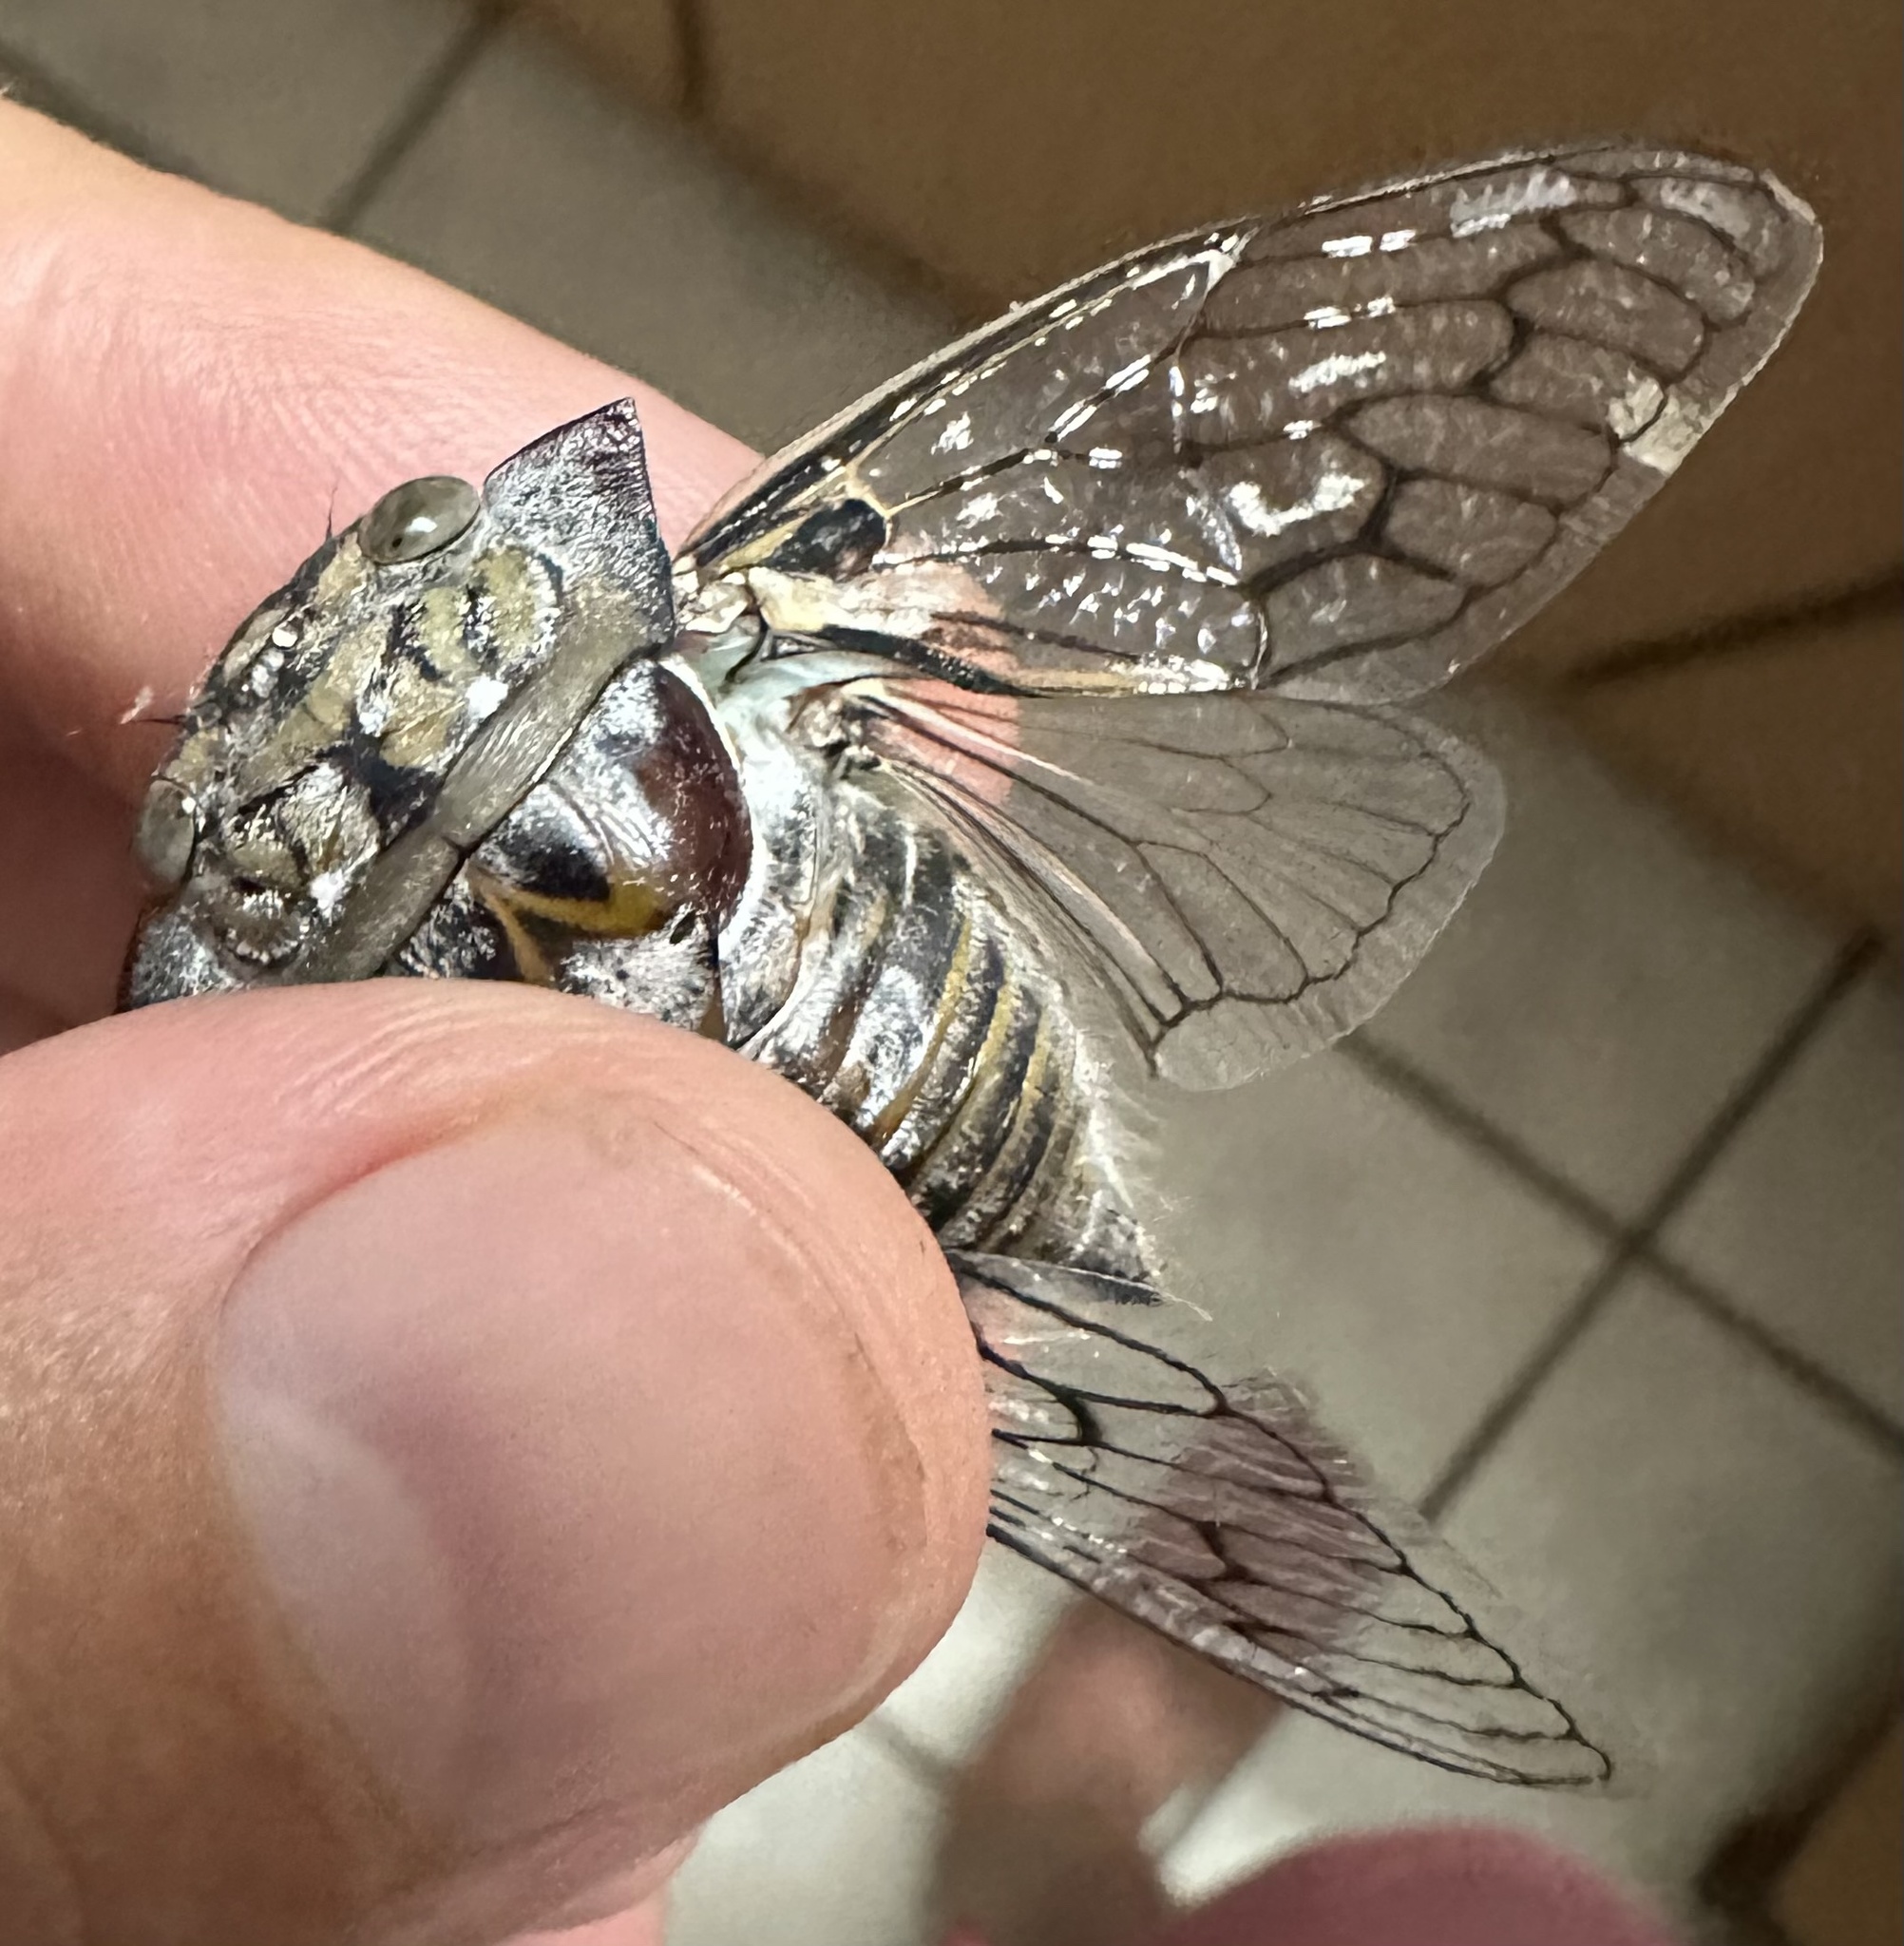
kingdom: Animalia
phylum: Arthropoda
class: Insecta
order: Hemiptera
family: Cicadidae
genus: Oxypleura
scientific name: Oxypleura quadraticollis
